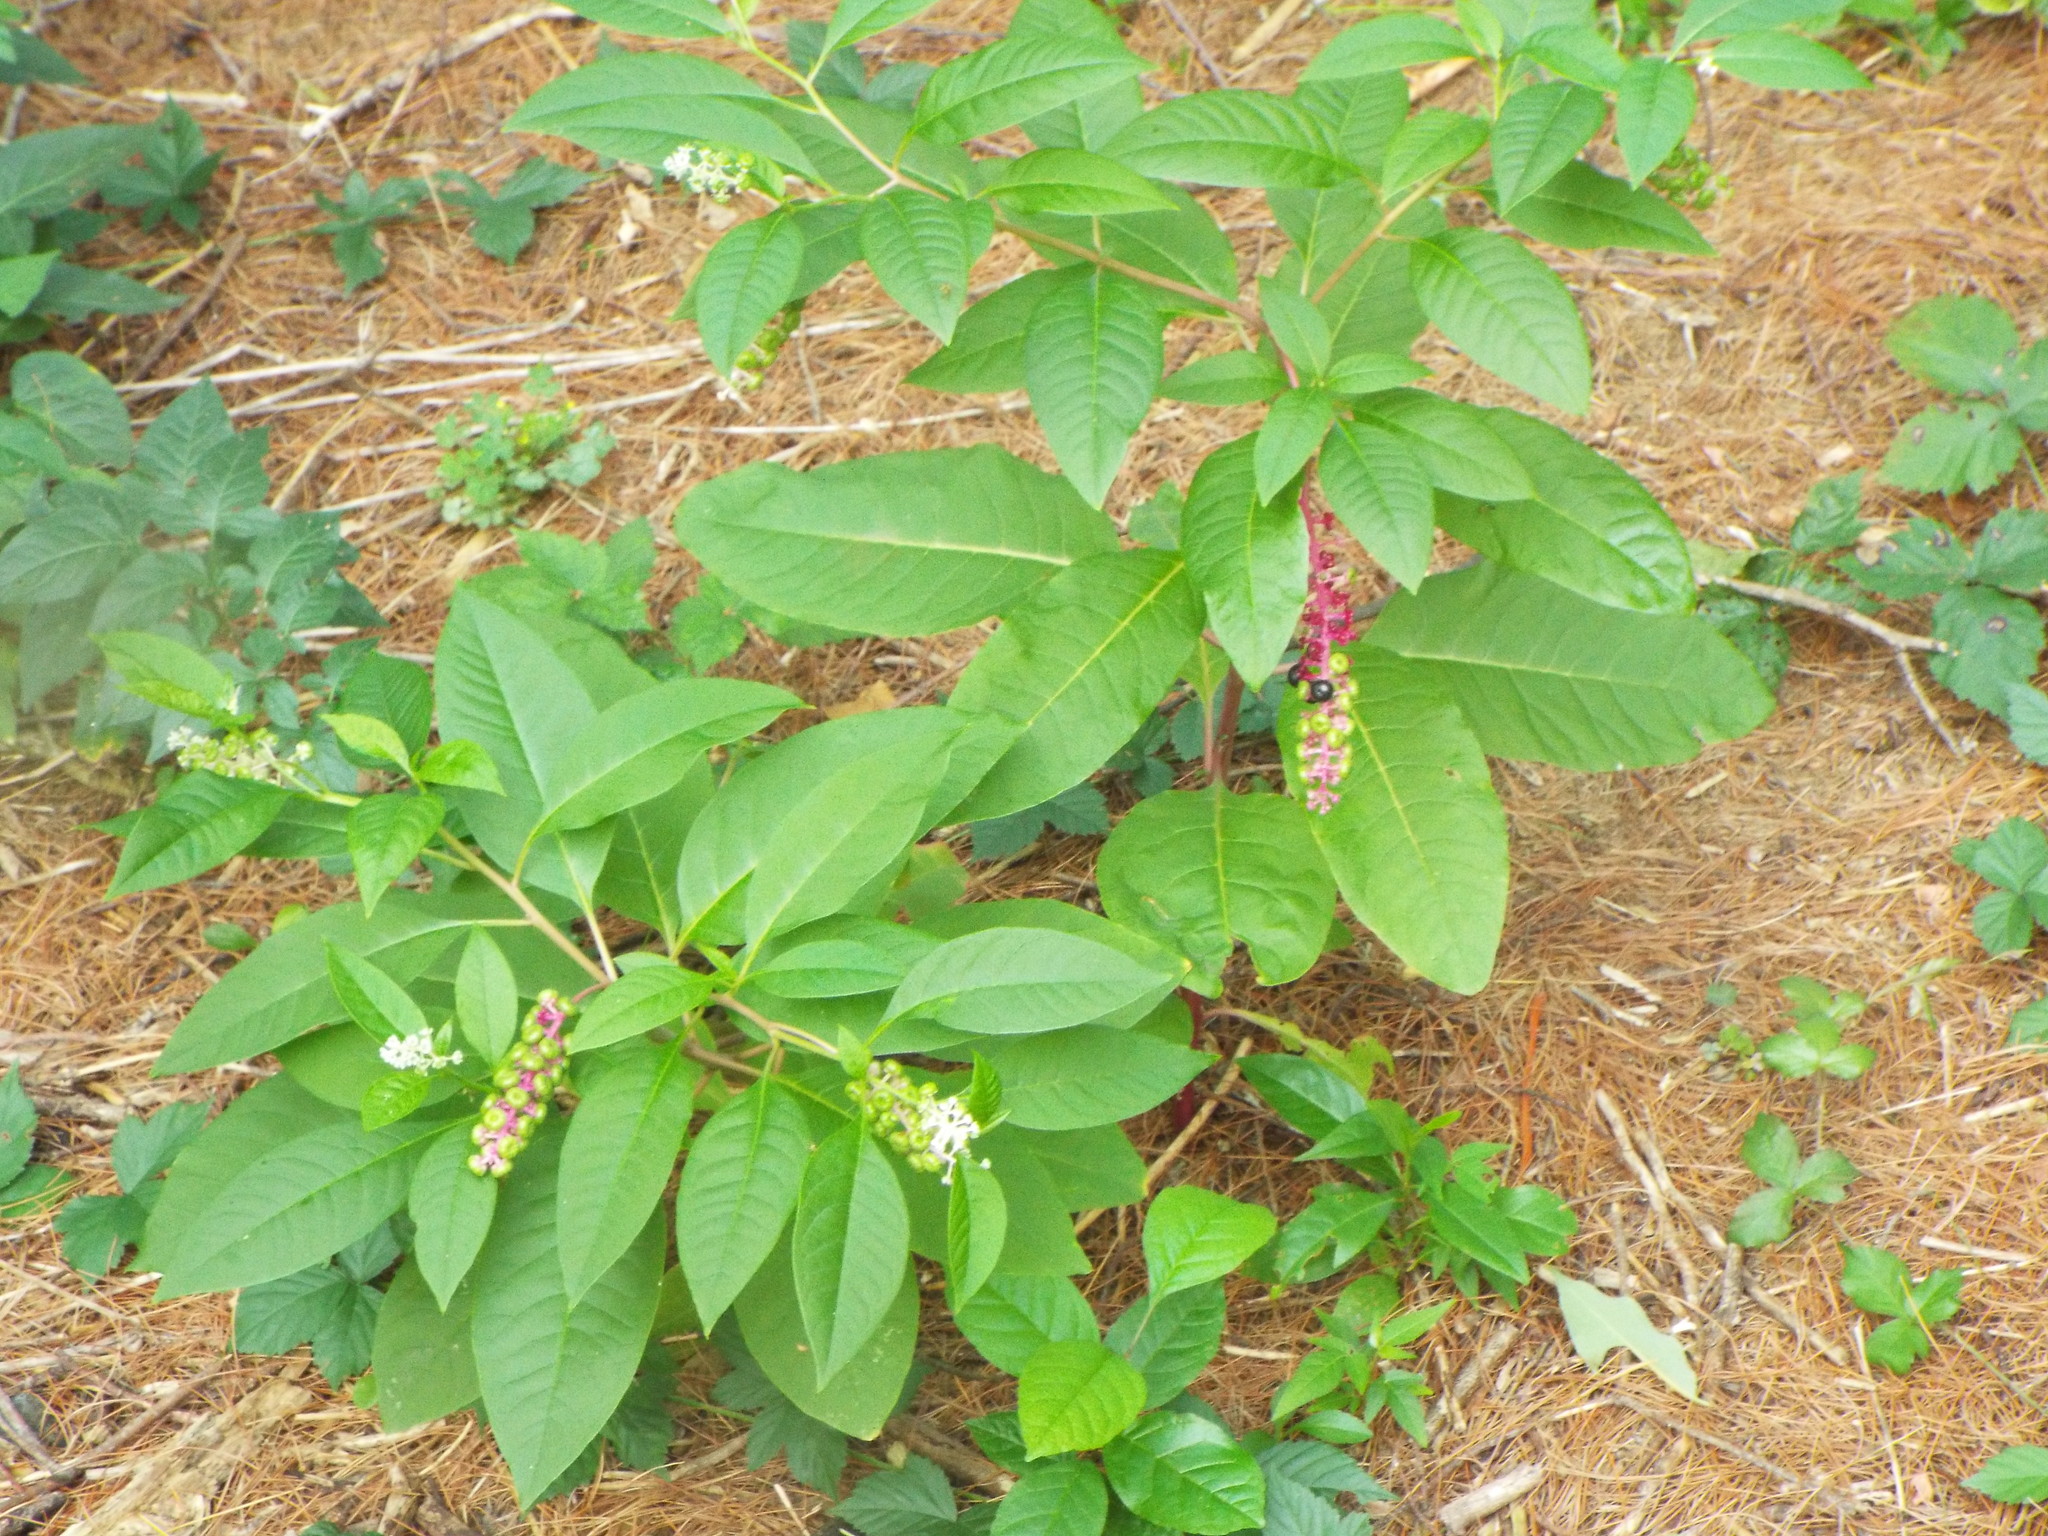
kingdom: Plantae
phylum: Tracheophyta
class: Magnoliopsida
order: Caryophyllales
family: Phytolaccaceae
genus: Phytolacca
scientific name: Phytolacca americana
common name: American pokeweed
